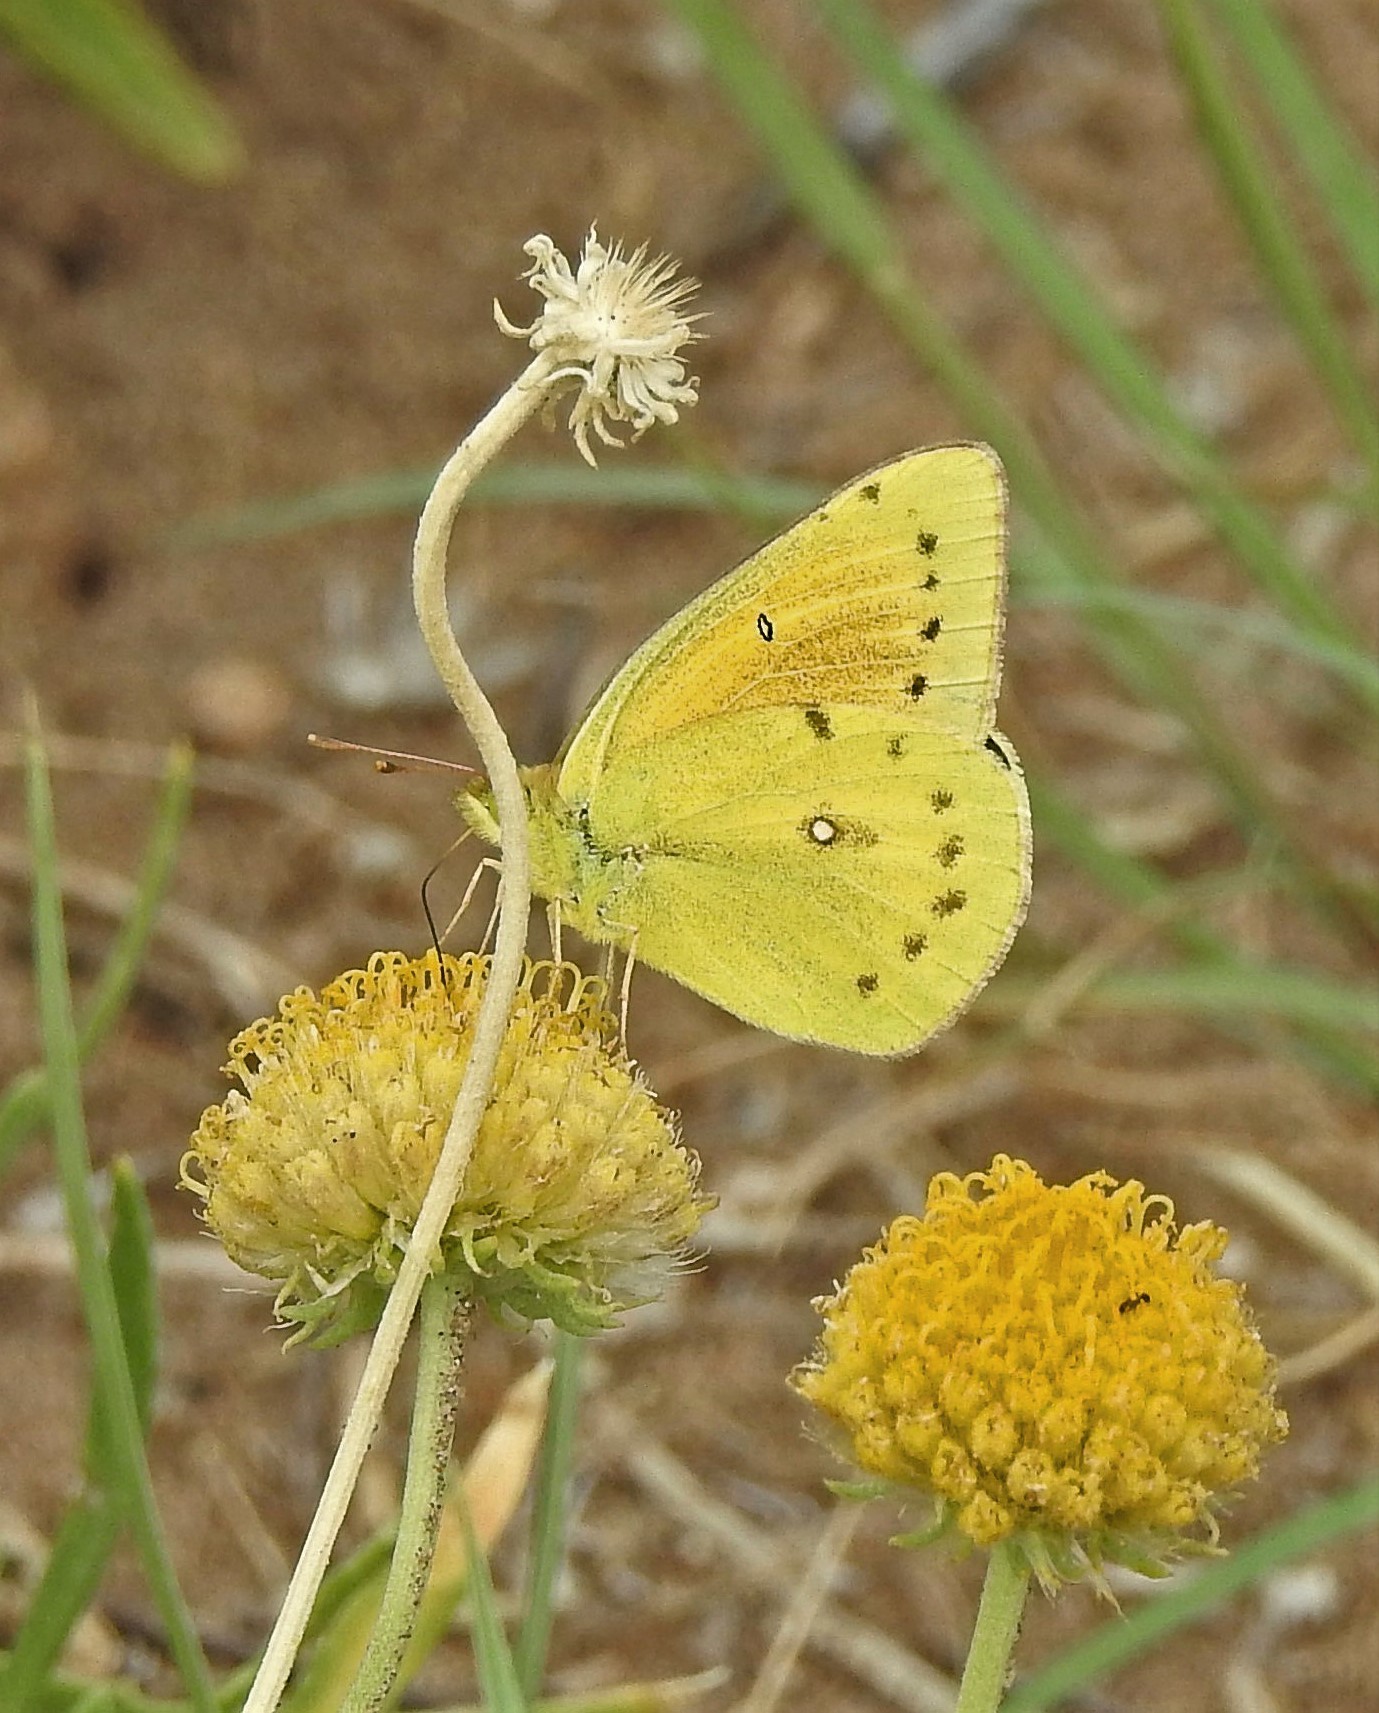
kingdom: Animalia
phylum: Arthropoda
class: Insecta
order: Lepidoptera
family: Pieridae
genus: Colias
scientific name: Colias lesbia
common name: Lesbia clouded yellow
